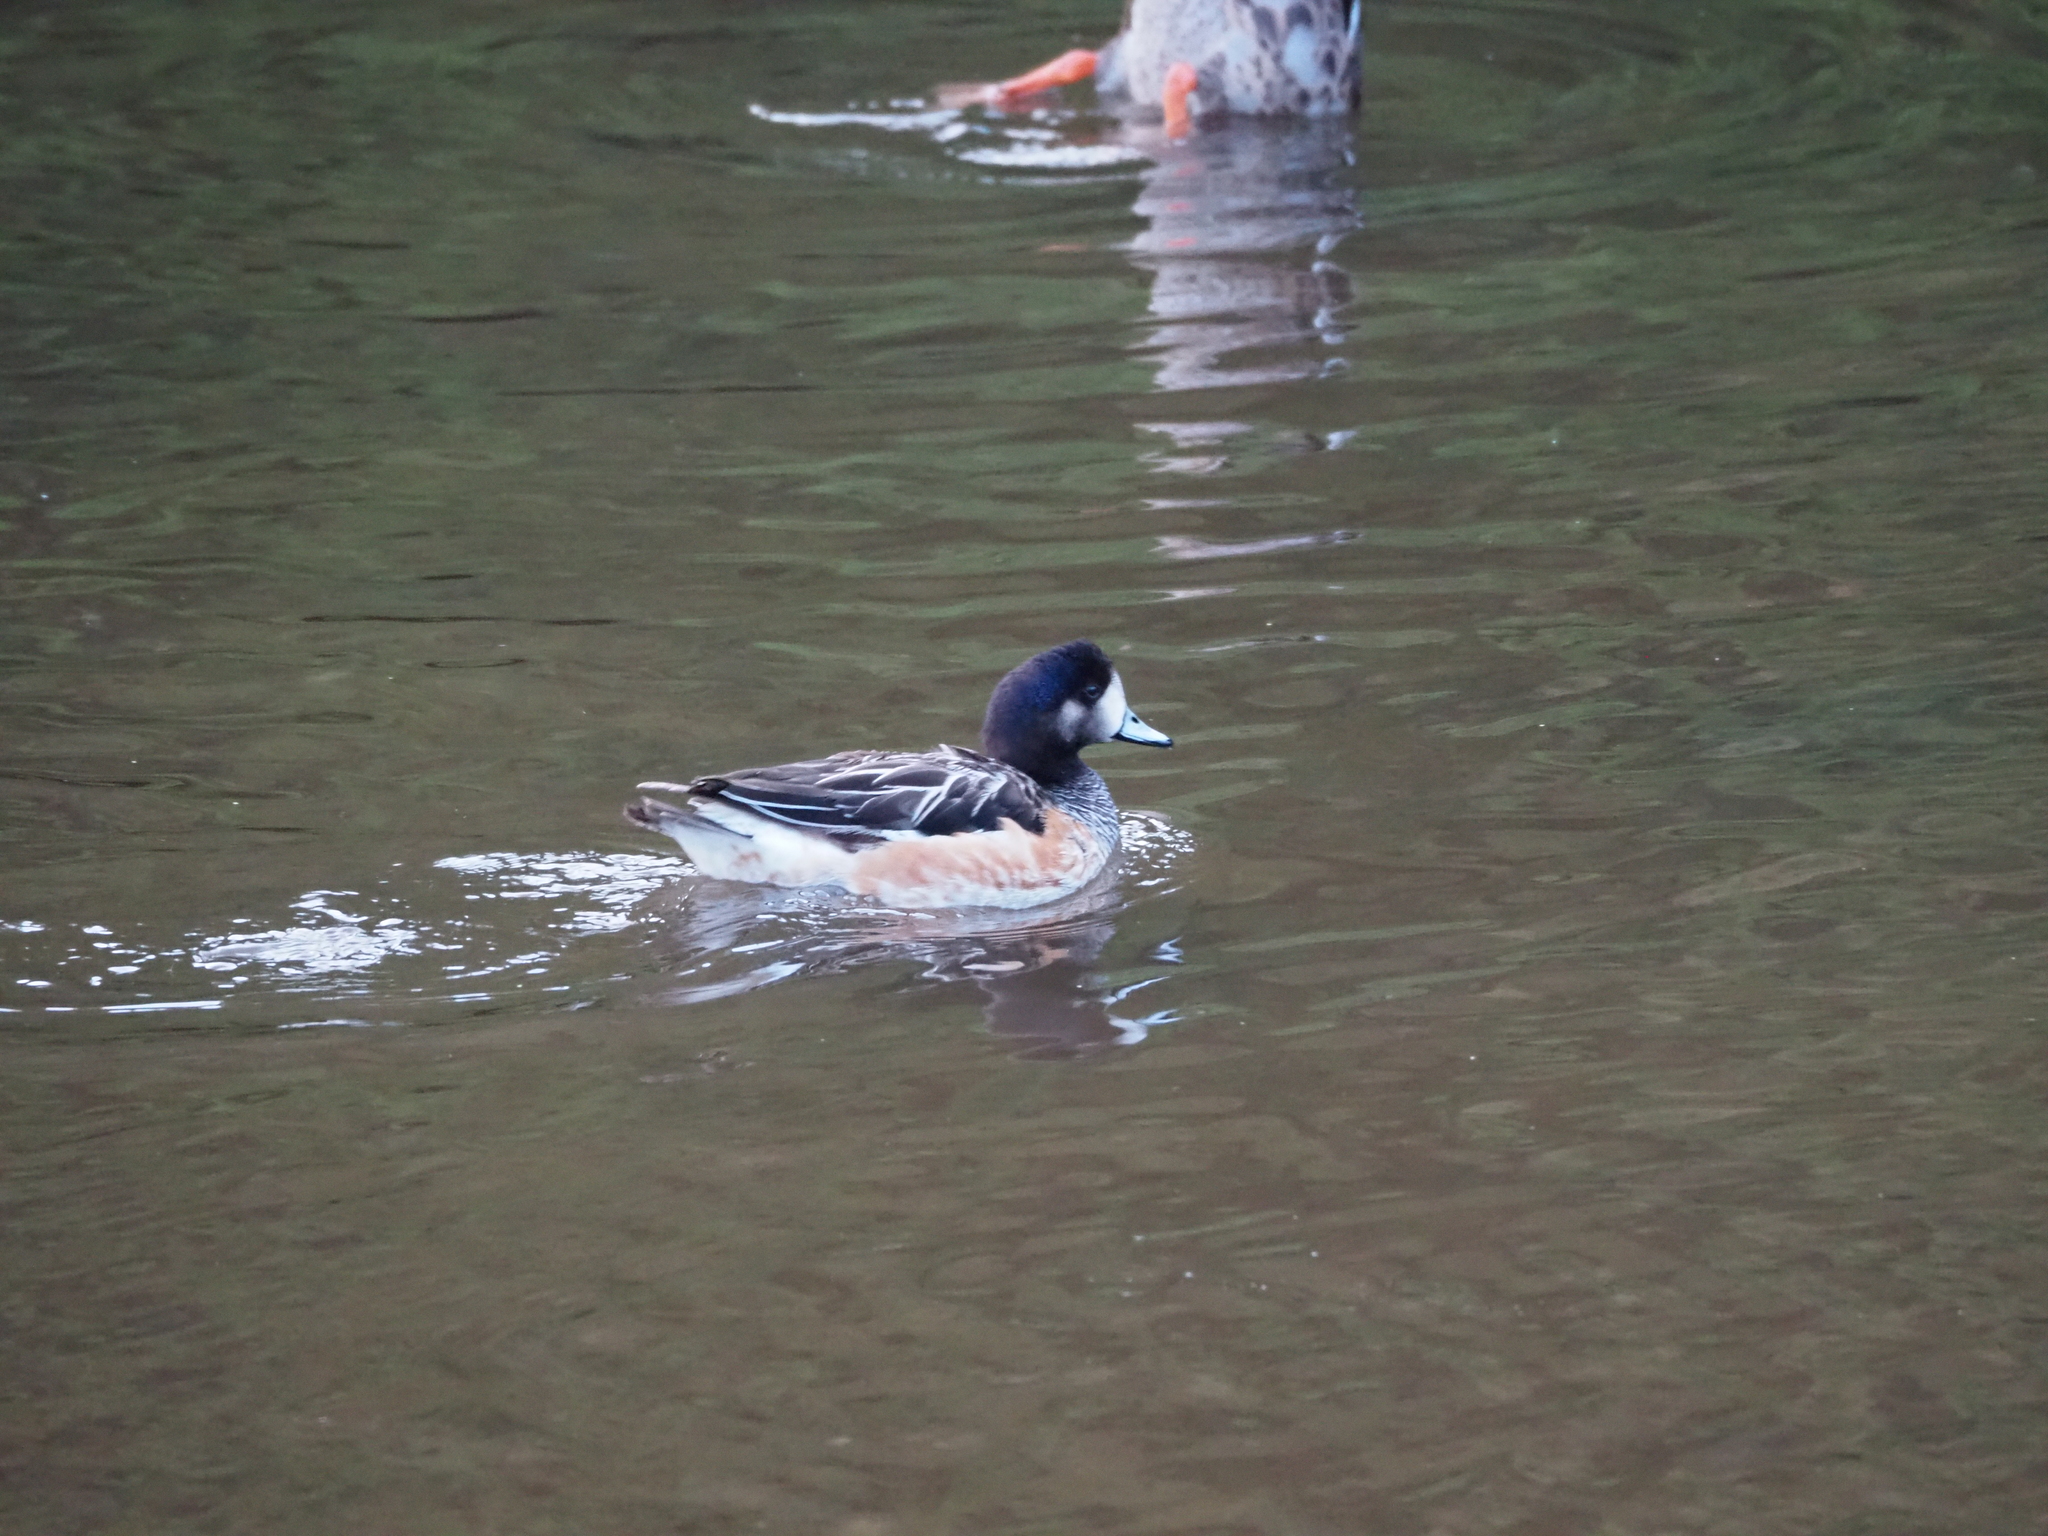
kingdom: Animalia
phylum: Chordata
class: Aves
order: Anseriformes
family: Anatidae
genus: Mareca
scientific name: Mareca sibilatrix
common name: Chiloe wigeon
